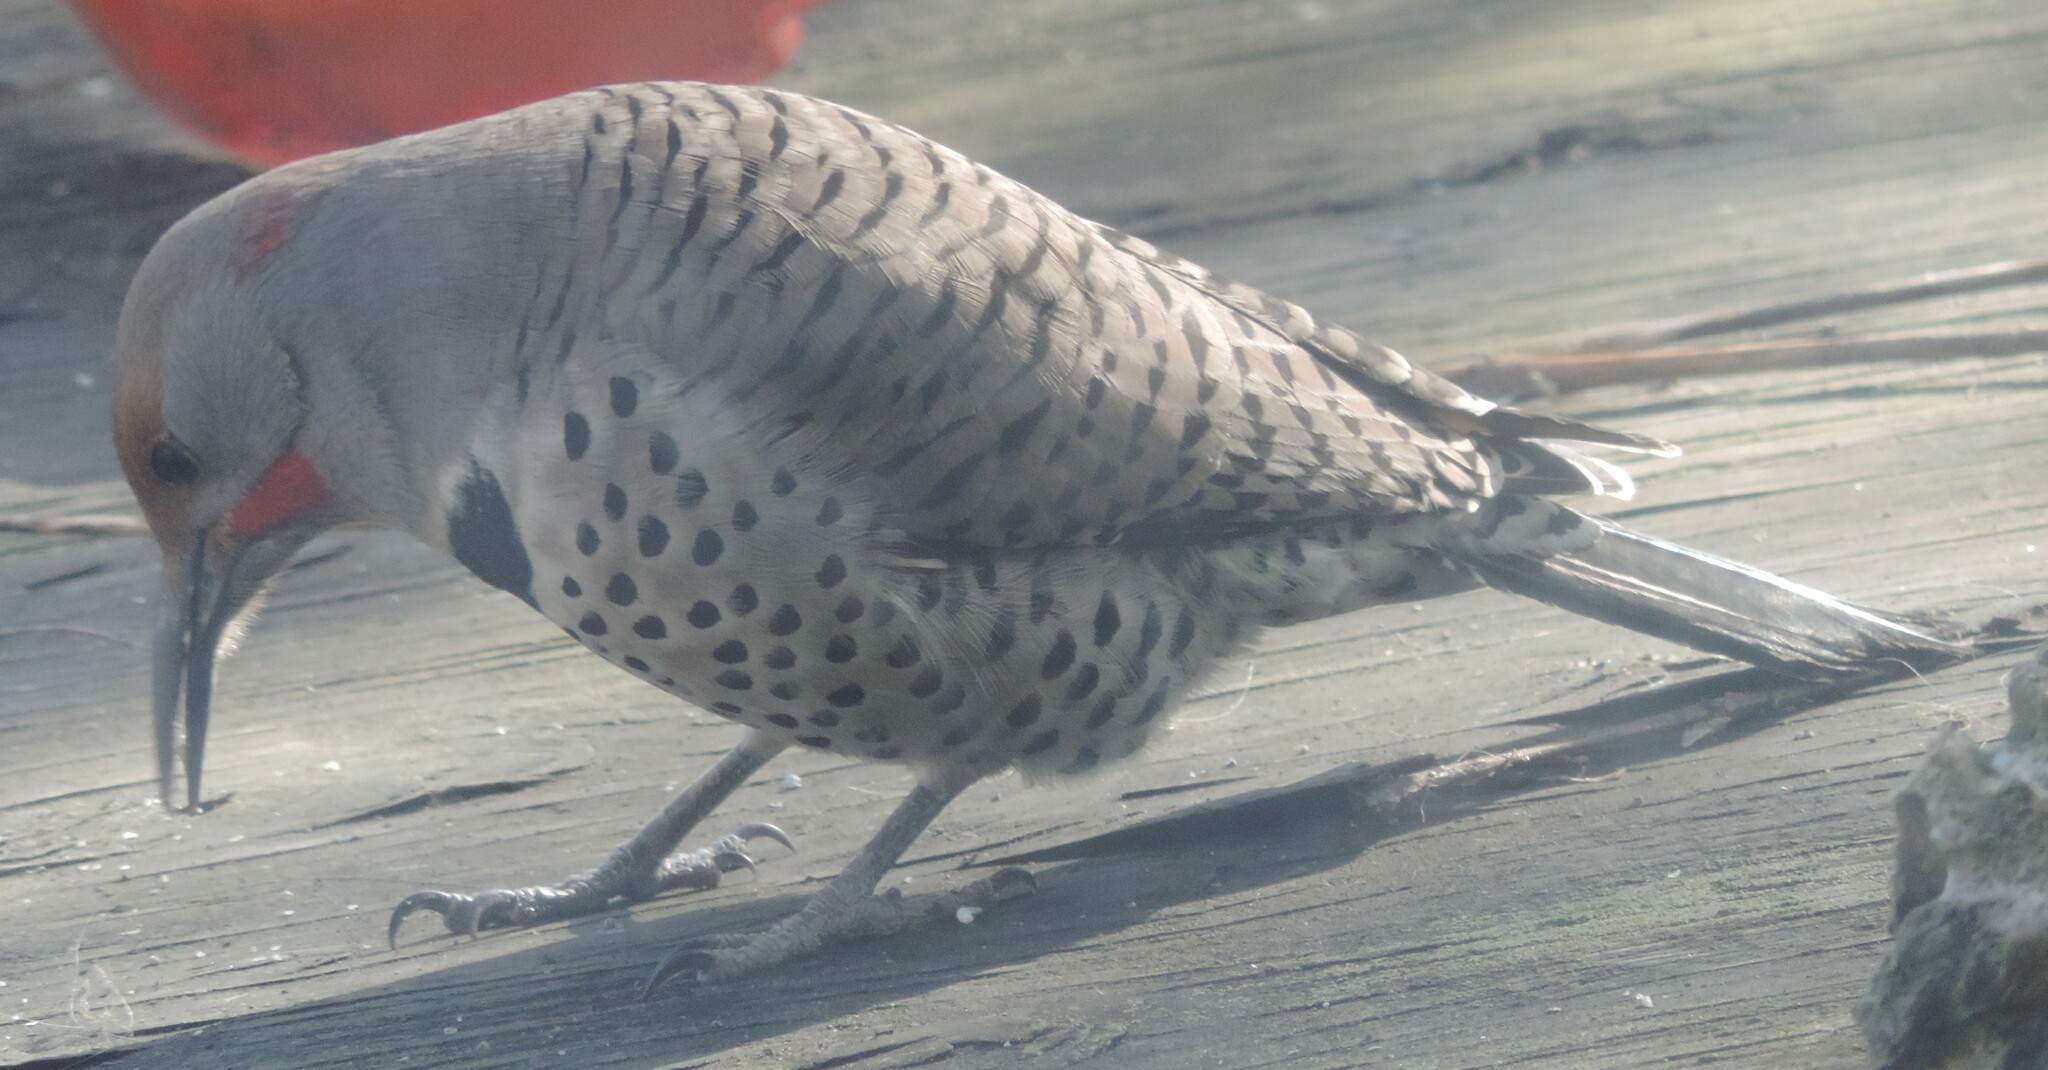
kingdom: Animalia
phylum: Chordata
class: Aves
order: Piciformes
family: Picidae
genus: Colaptes
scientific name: Colaptes
